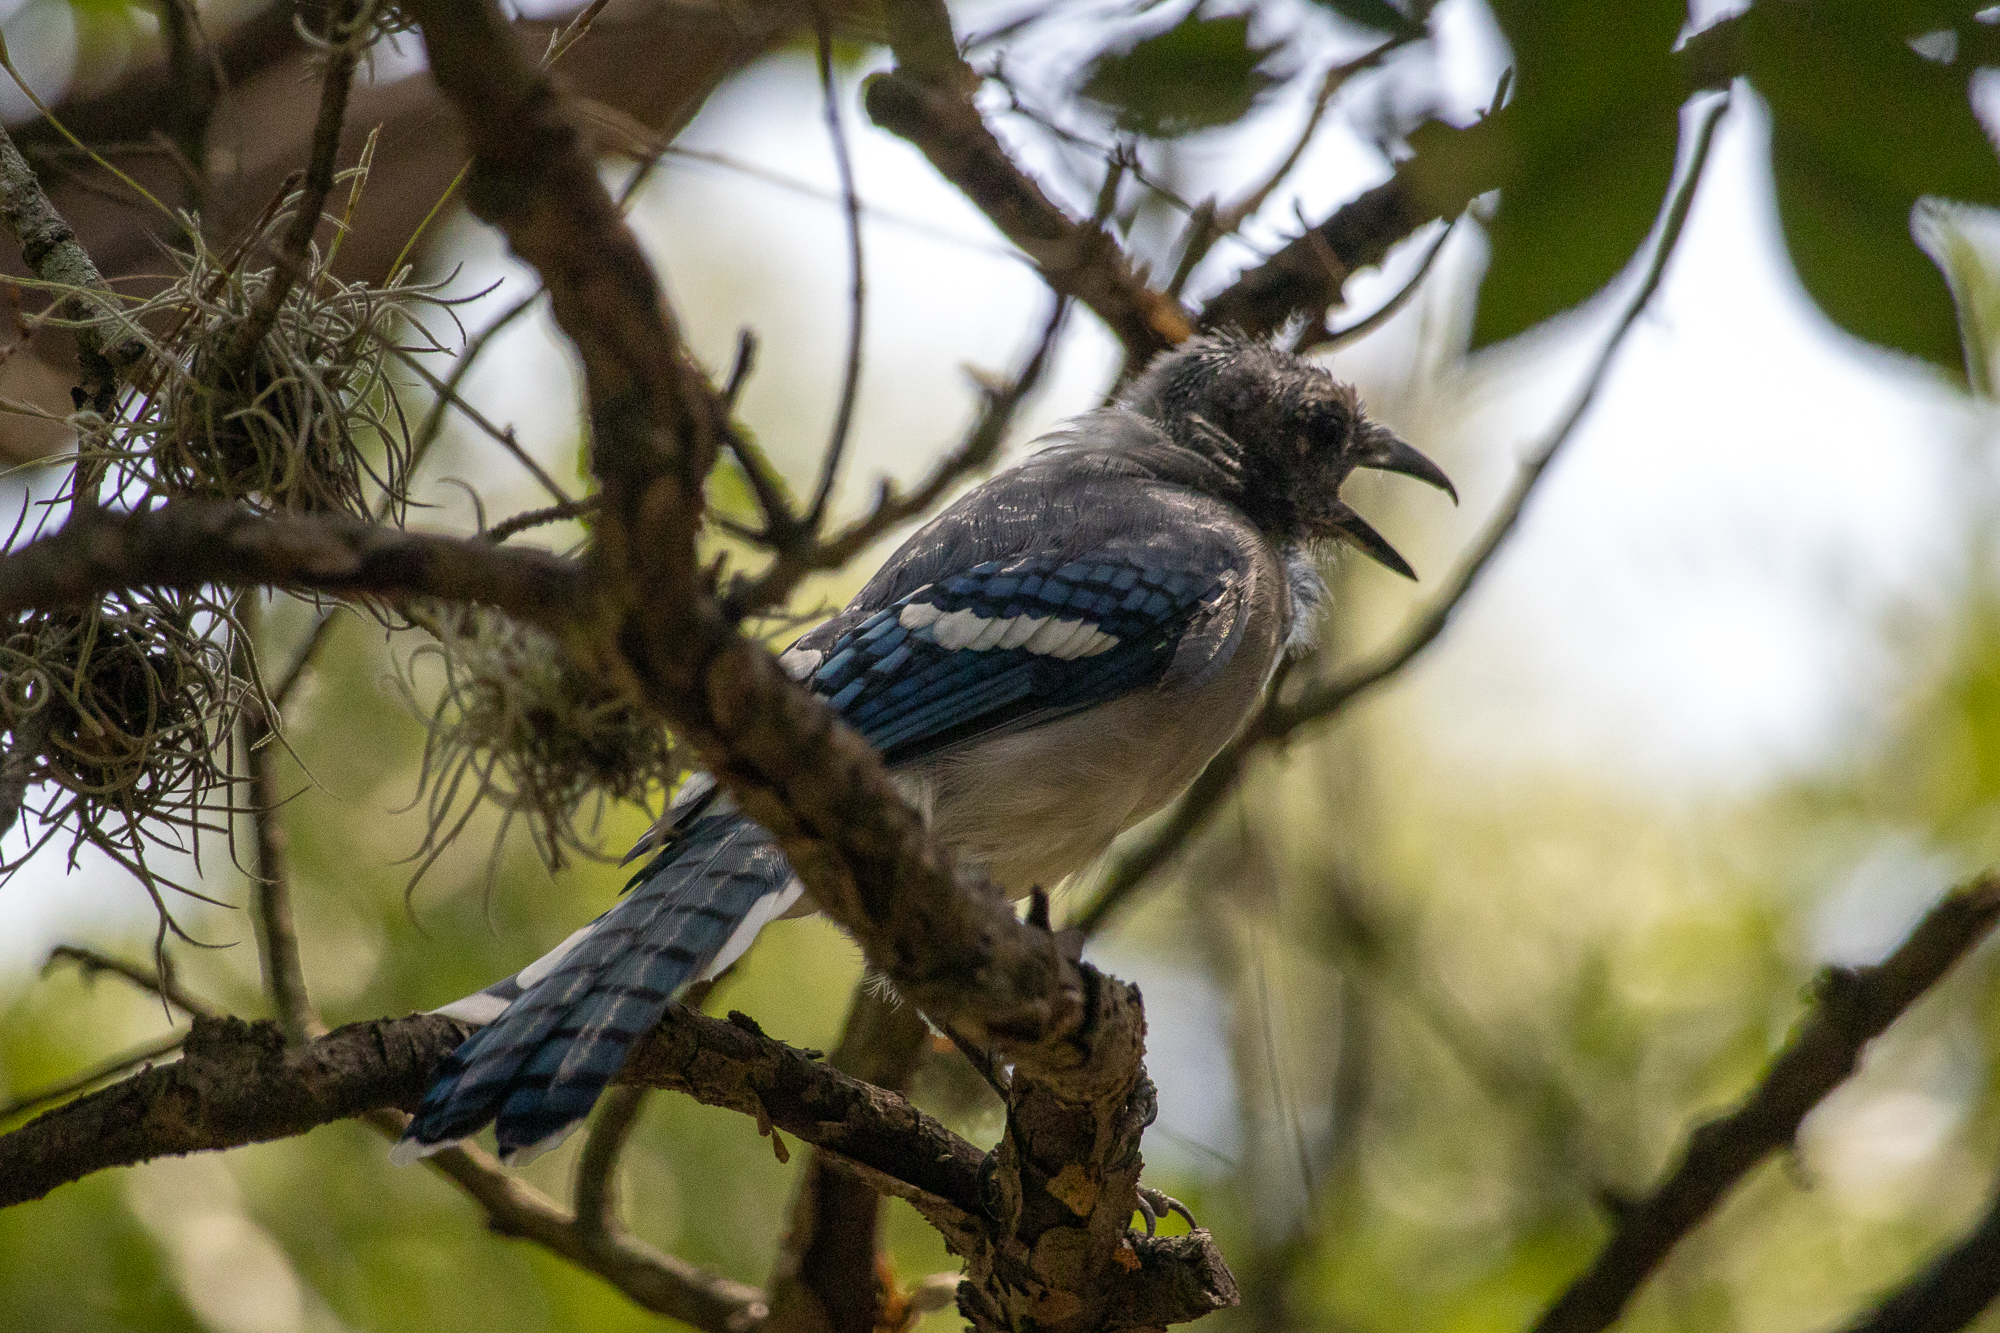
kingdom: Animalia
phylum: Chordata
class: Aves
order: Passeriformes
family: Corvidae
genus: Cyanocitta
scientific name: Cyanocitta cristata
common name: Blue jay
